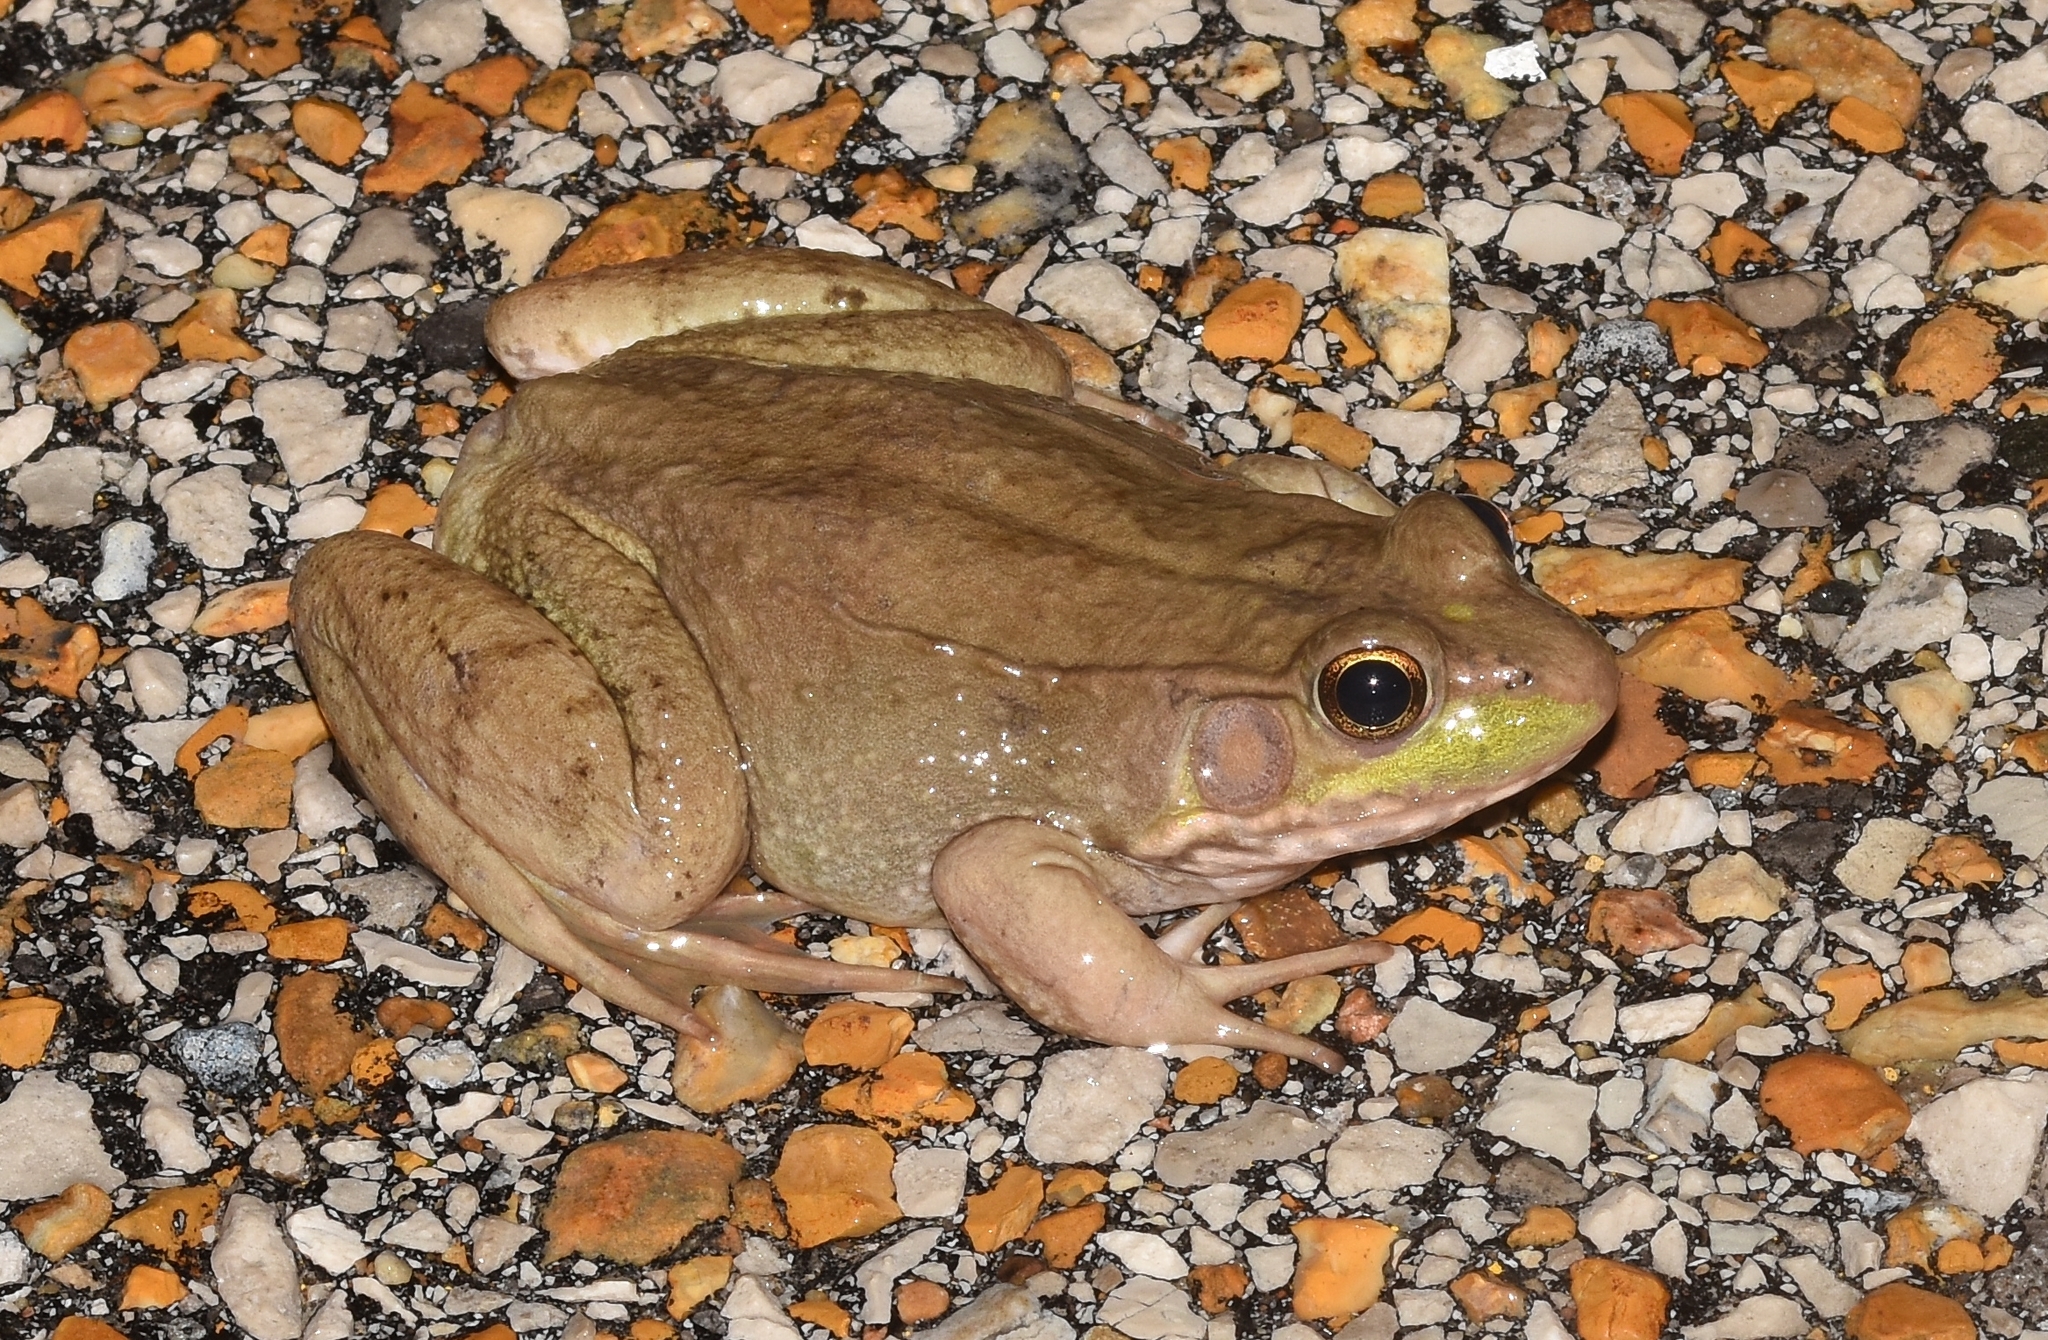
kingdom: Animalia
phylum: Chordata
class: Amphibia
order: Anura
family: Ranidae
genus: Lithobates
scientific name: Lithobates clamitans
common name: Green frog
